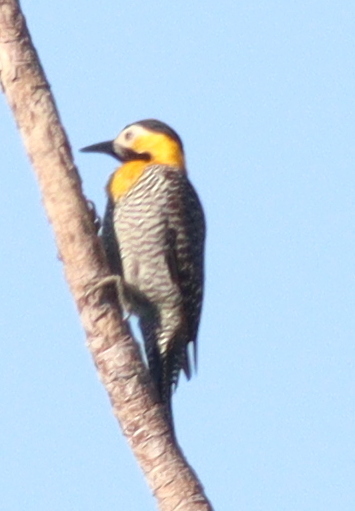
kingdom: Animalia
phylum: Chordata
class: Aves
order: Piciformes
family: Picidae
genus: Colaptes
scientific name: Colaptes campestris
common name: Campo flicker
